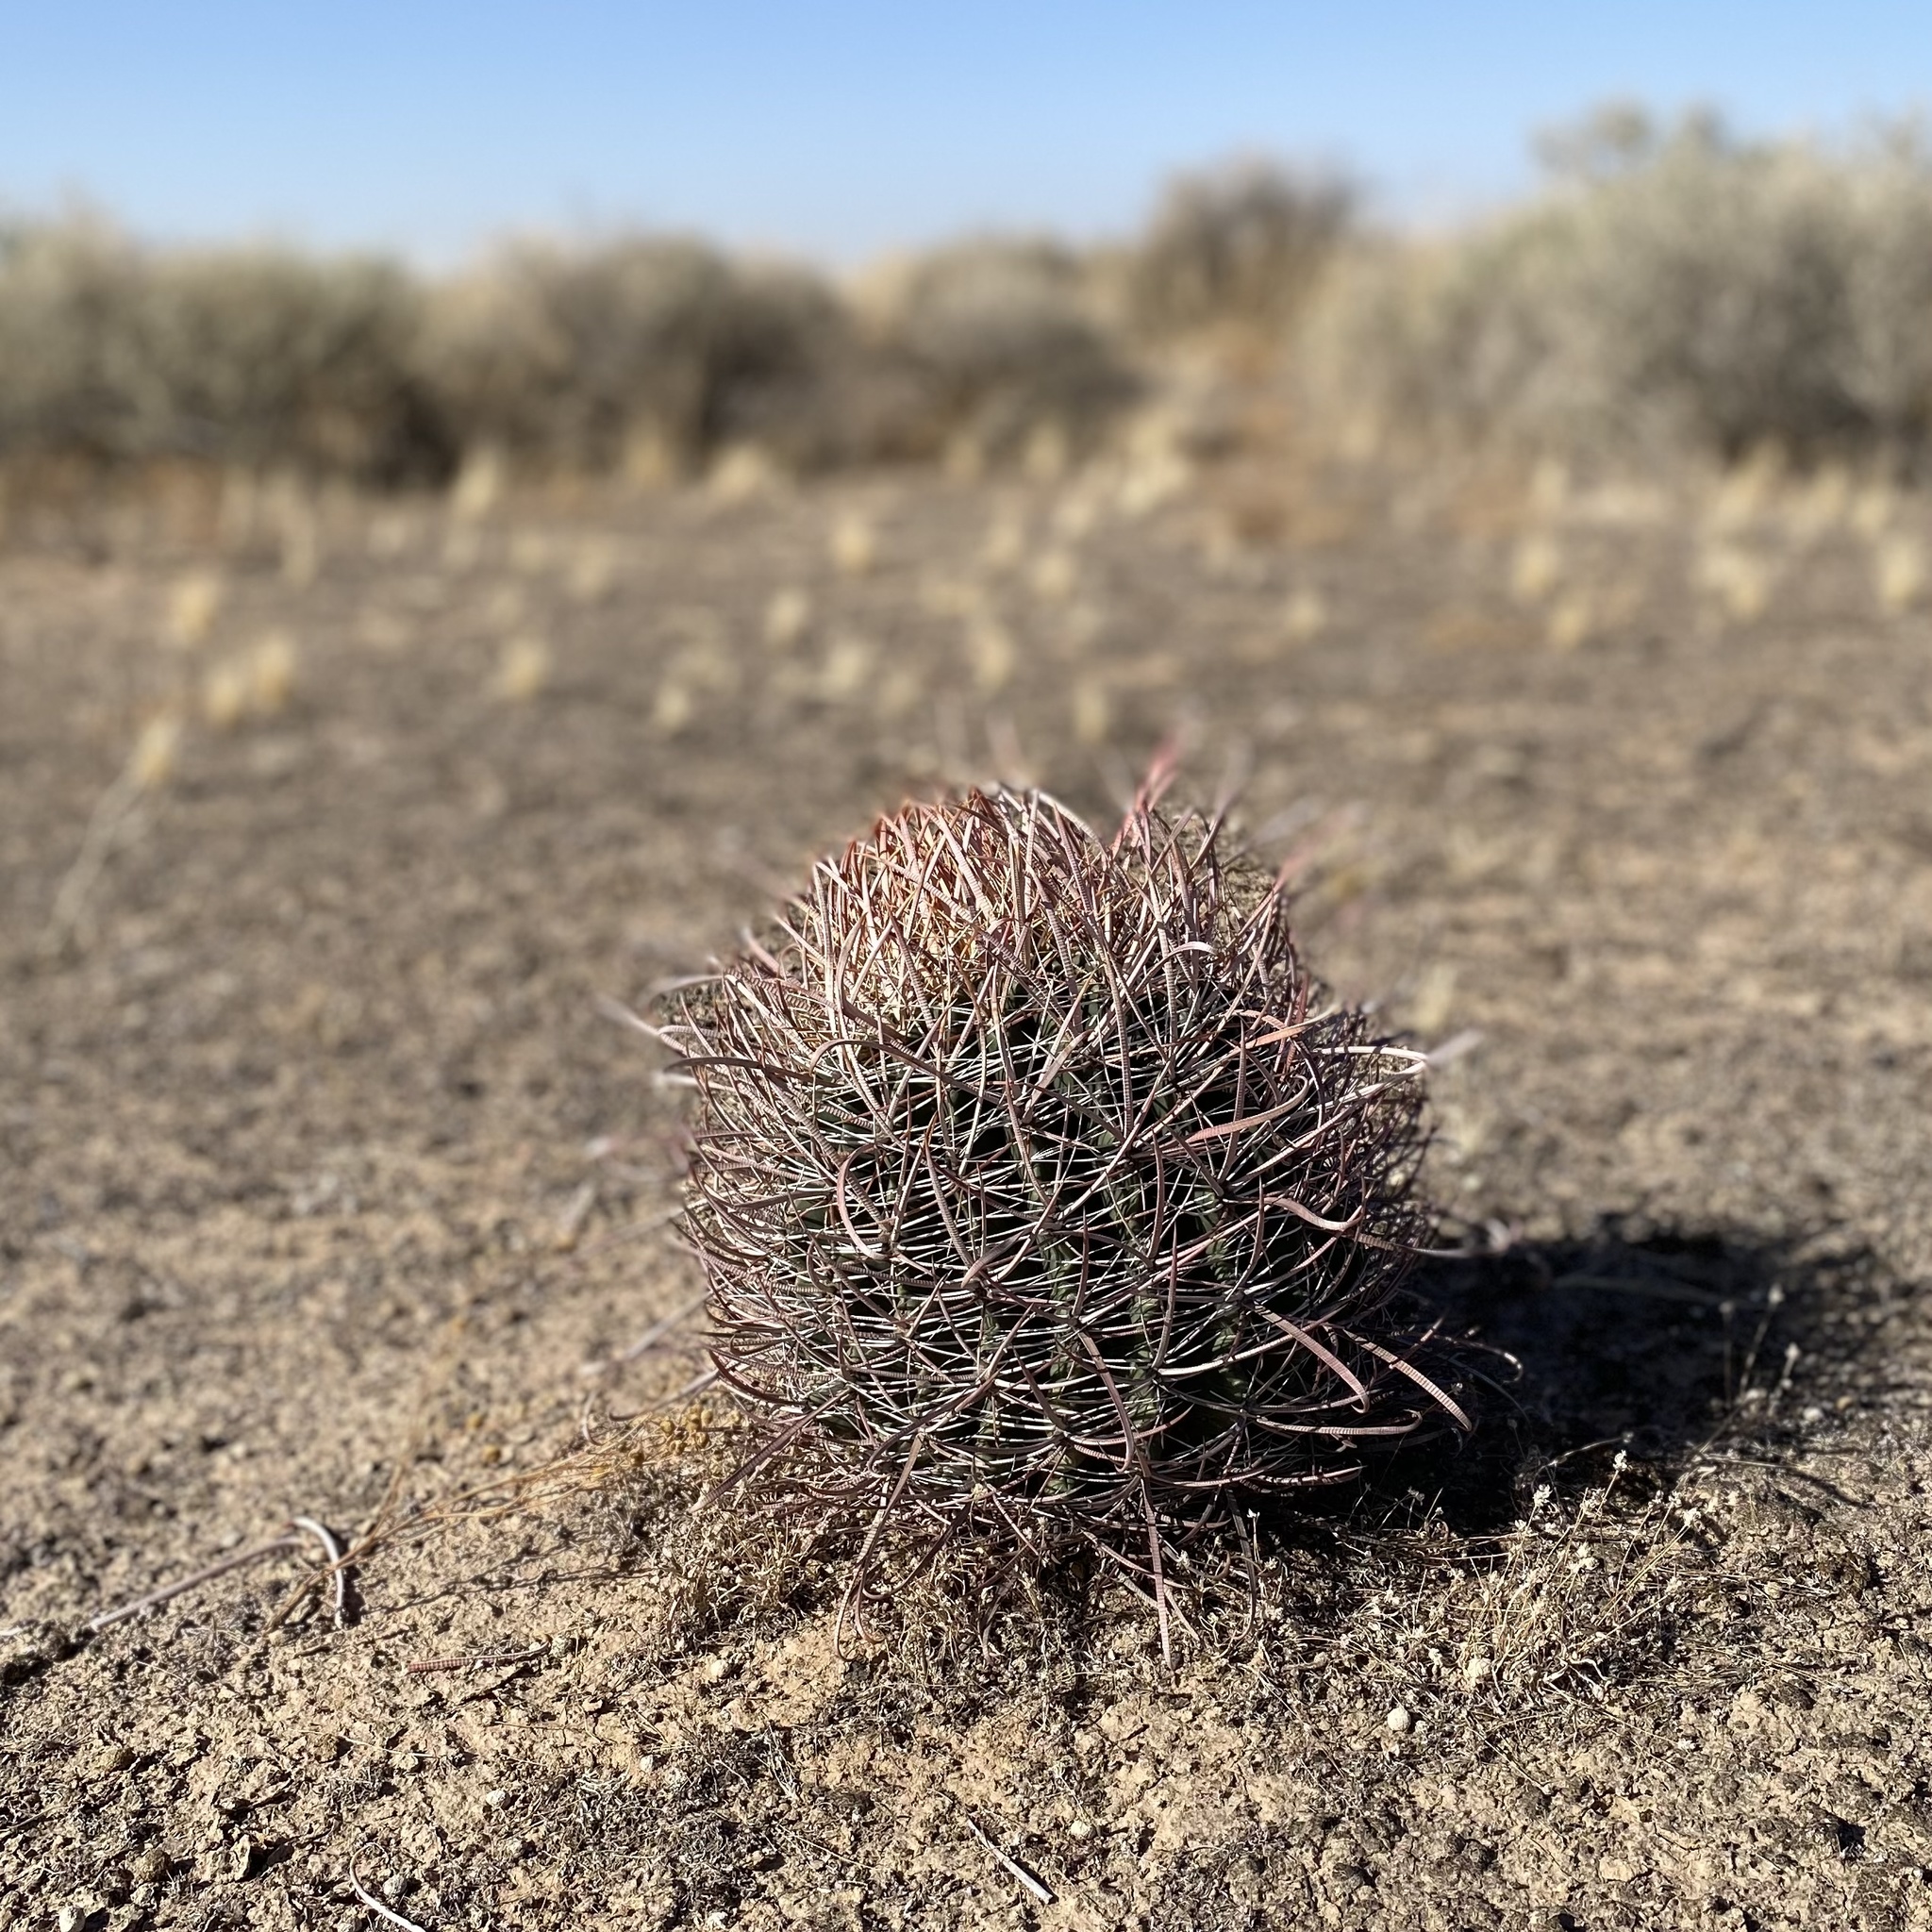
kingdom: Plantae
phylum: Tracheophyta
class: Magnoliopsida
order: Caryophyllales
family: Cactaceae
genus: Ferocactus
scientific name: Ferocactus cylindraceus
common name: California barrel cactus
